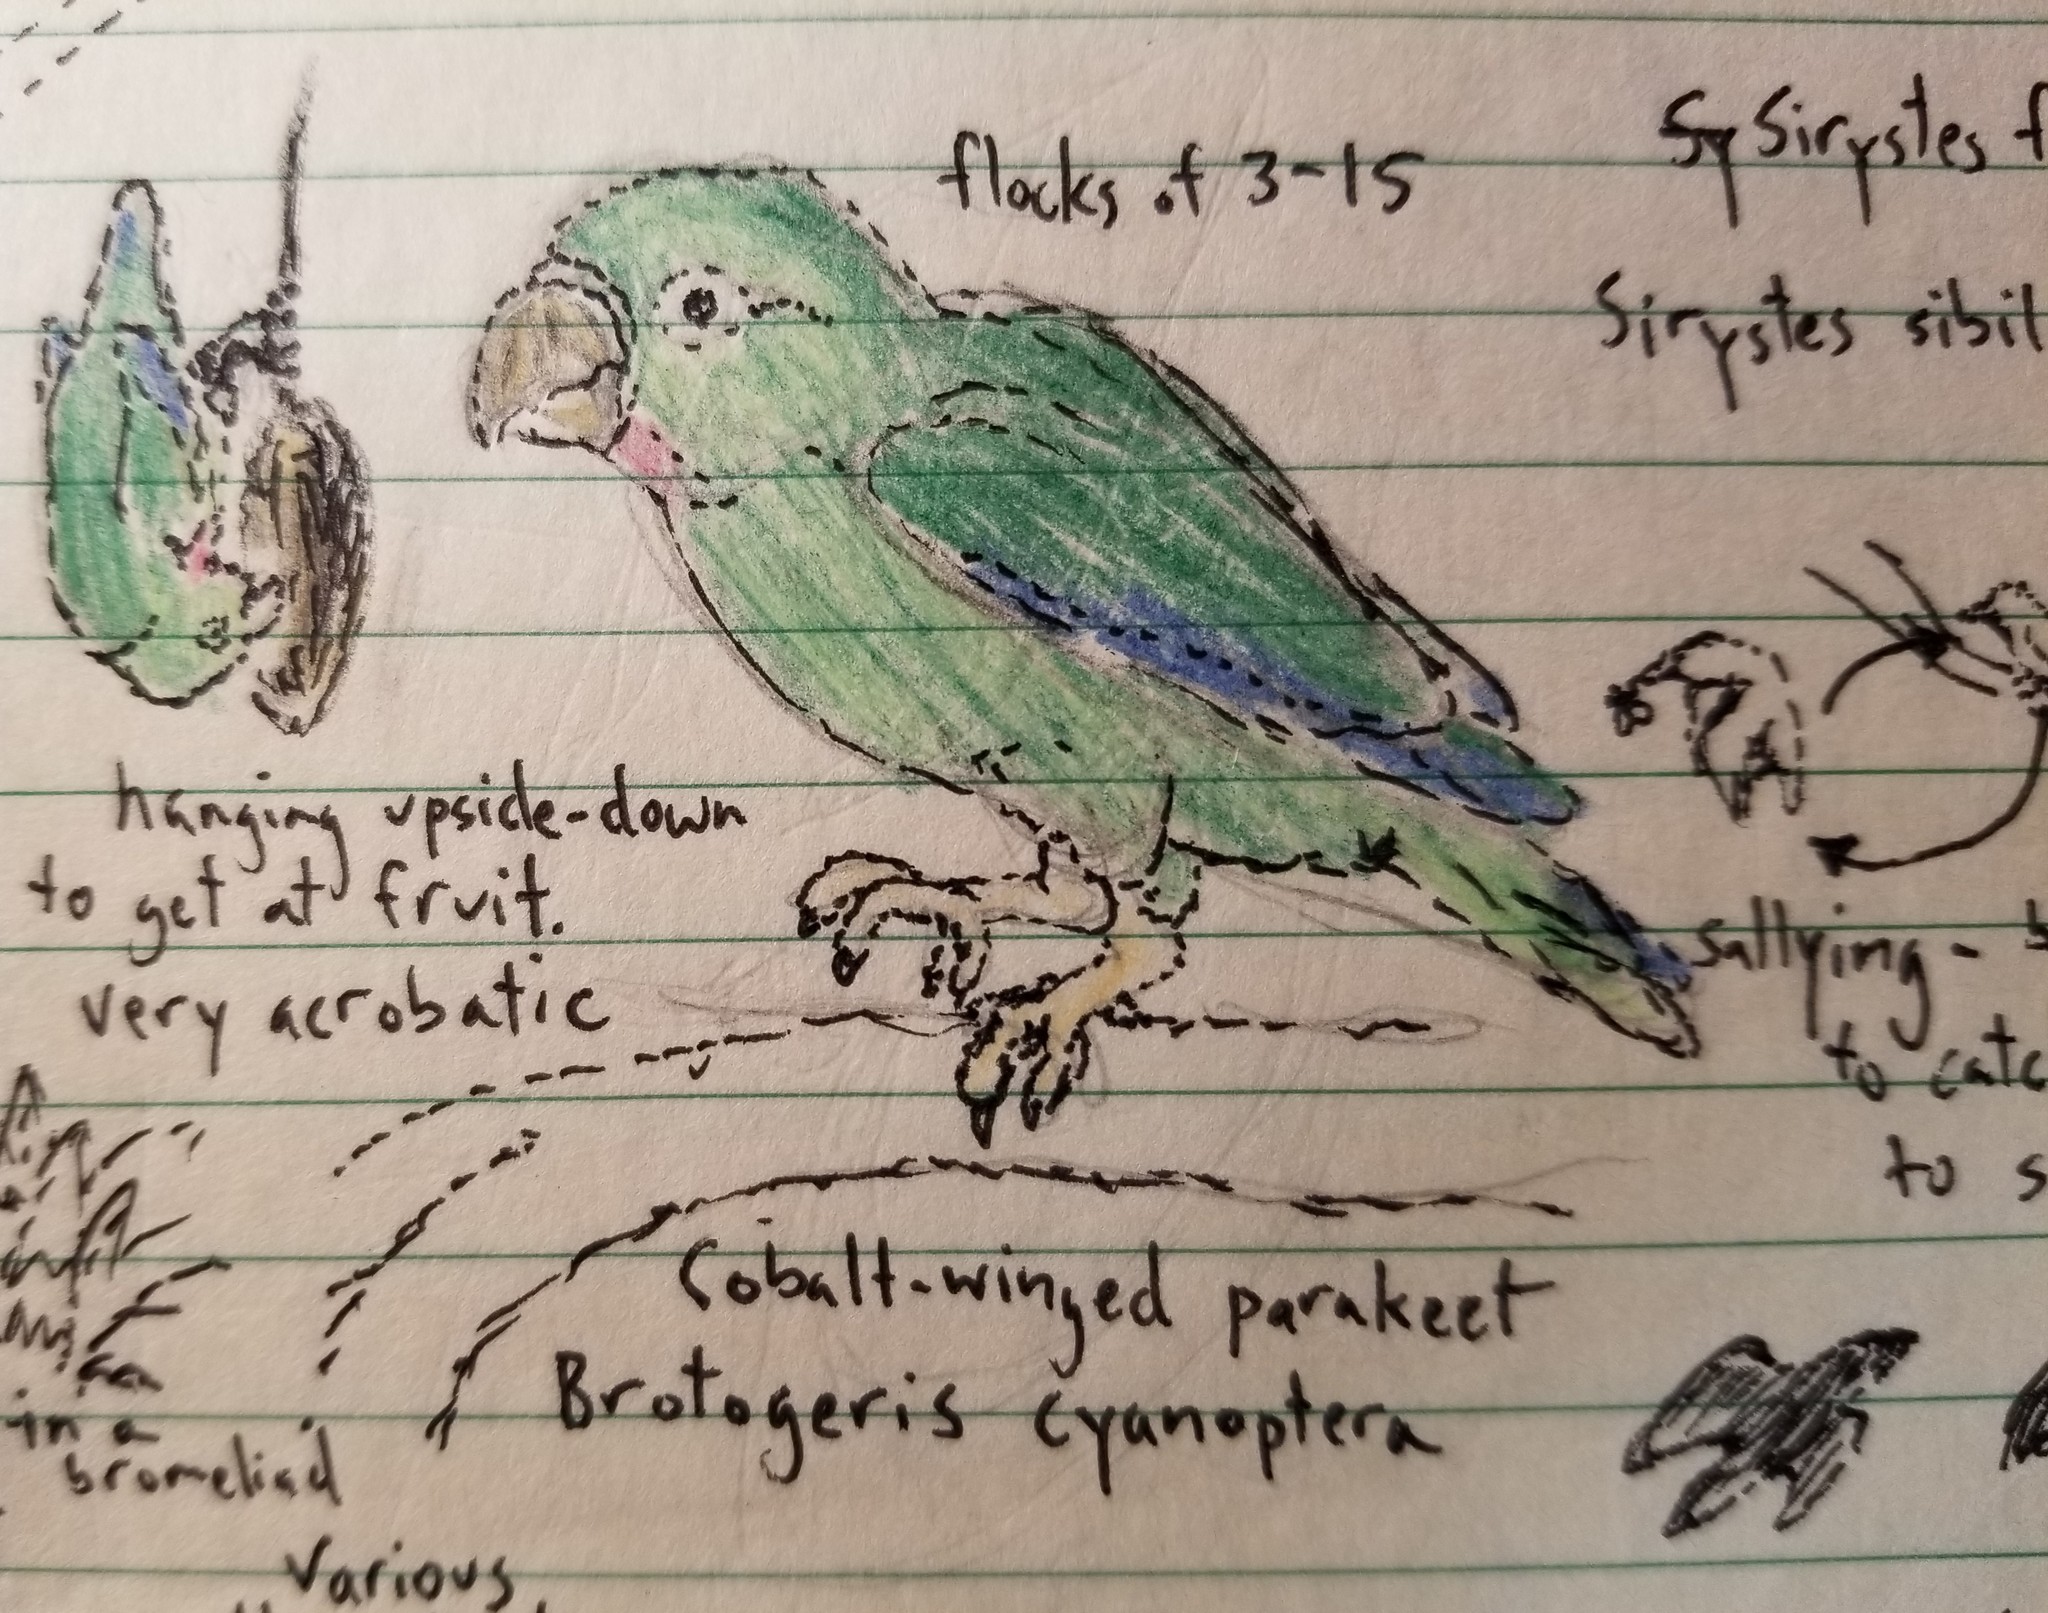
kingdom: Animalia
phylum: Chordata
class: Aves
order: Psittaciformes
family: Psittacidae
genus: Brotogeris
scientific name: Brotogeris cyanoptera
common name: Cobalt-winged parakeet
